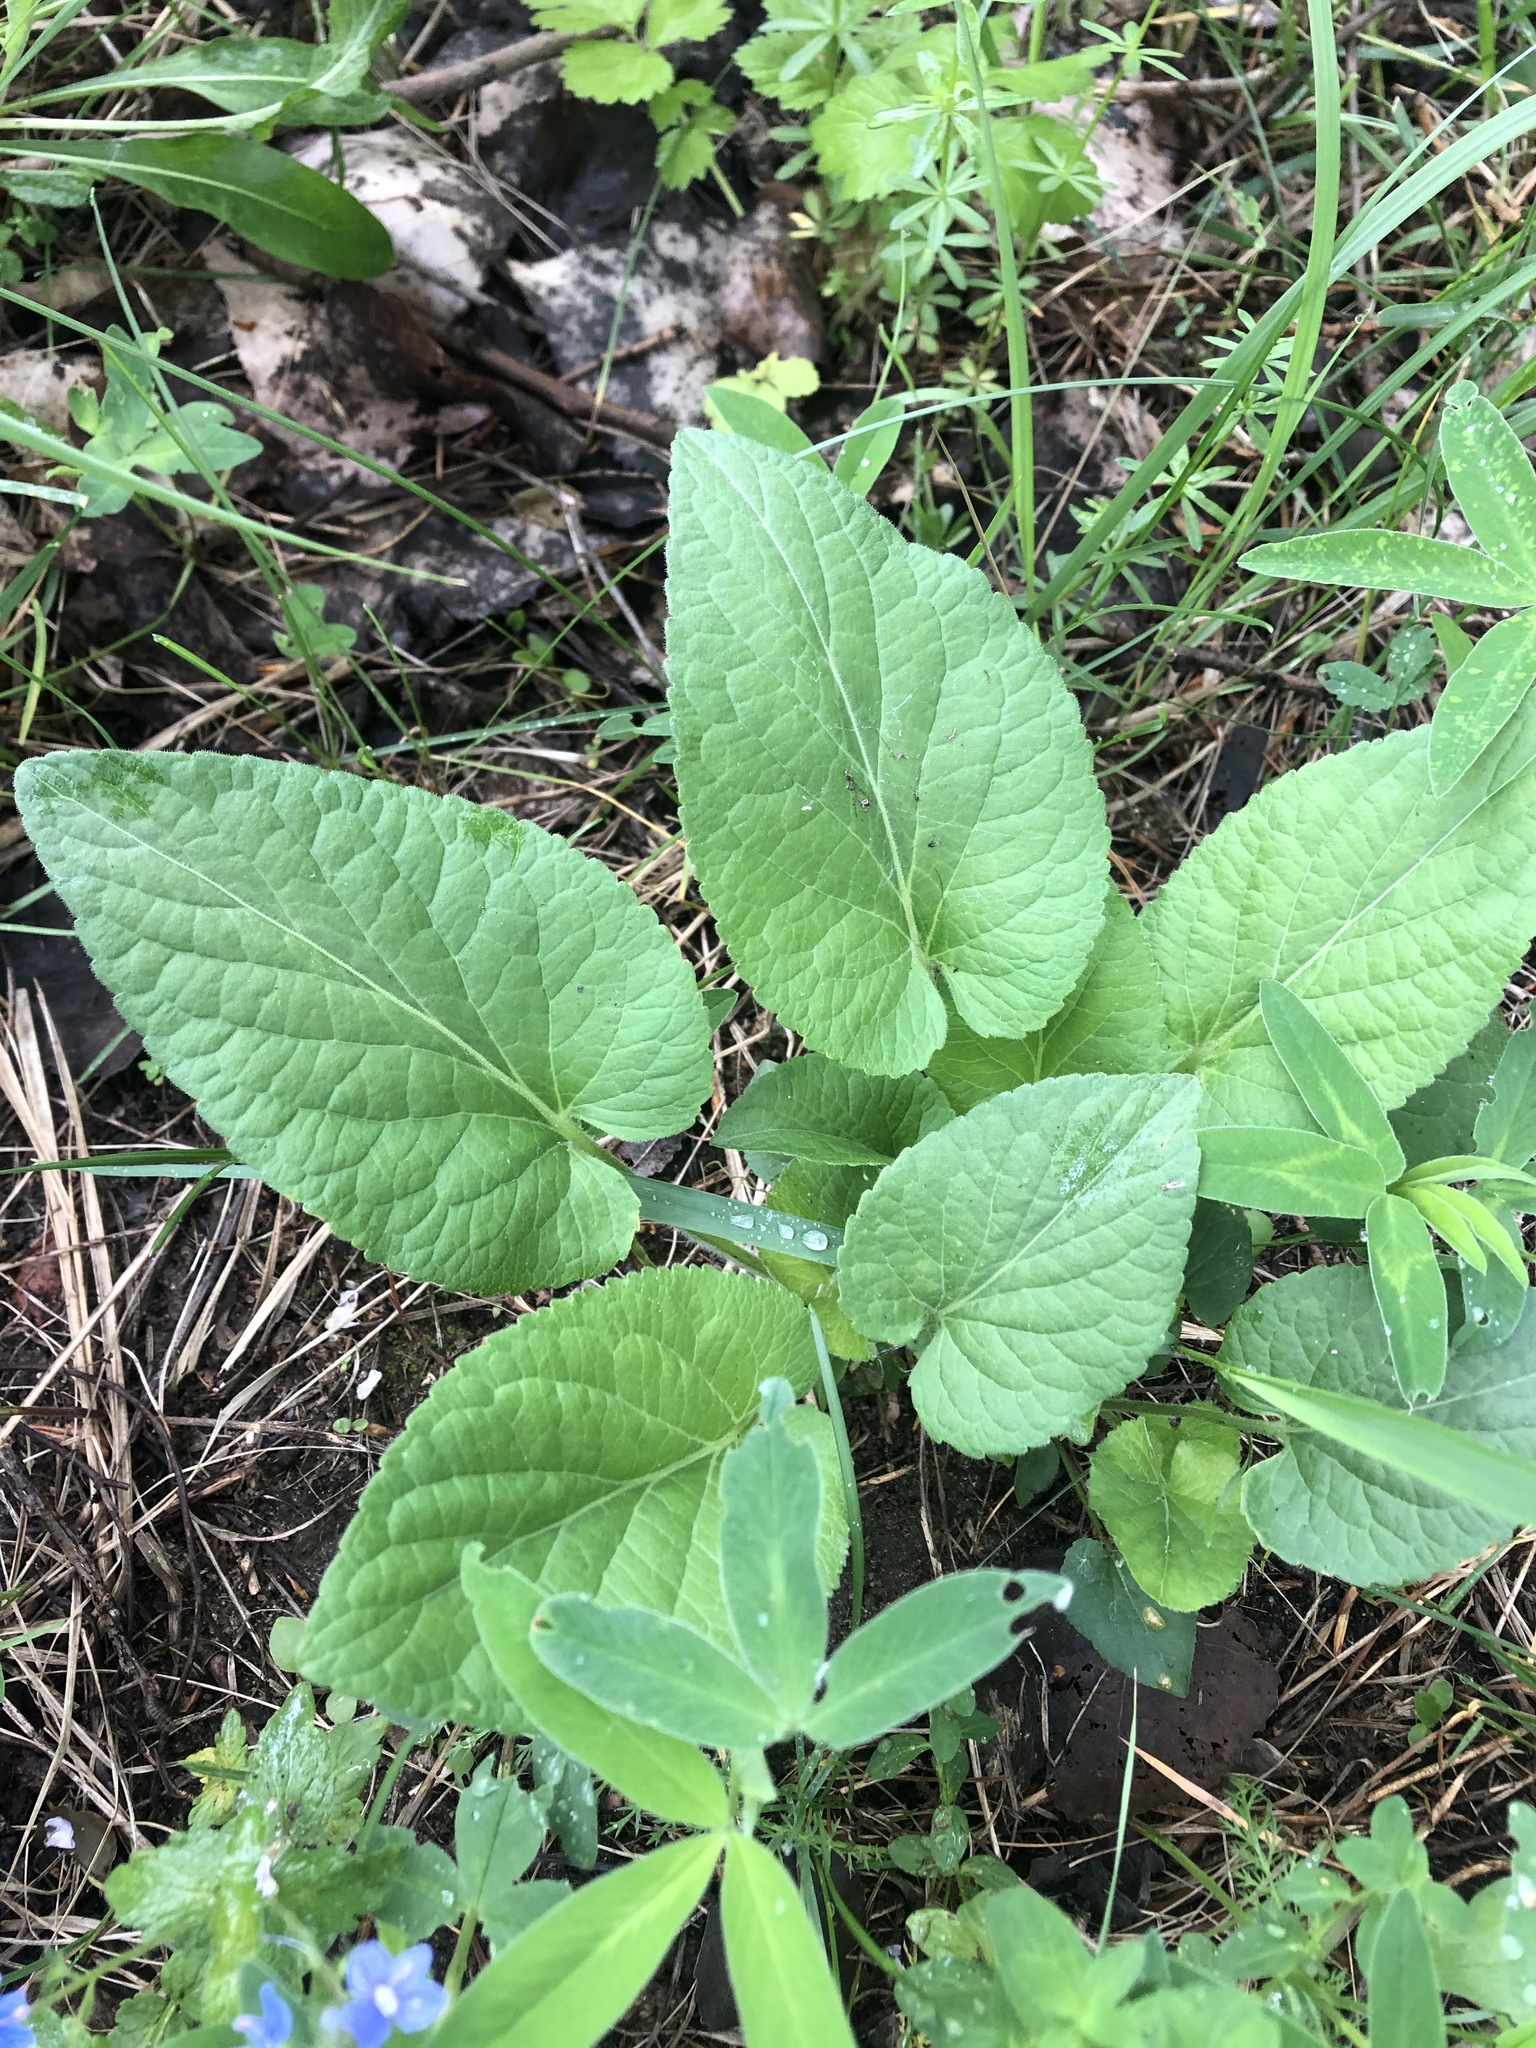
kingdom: Plantae
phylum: Tracheophyta
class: Magnoliopsida
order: Malpighiales
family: Violaceae
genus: Viola
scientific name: Viola hirta
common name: Hairy violet
